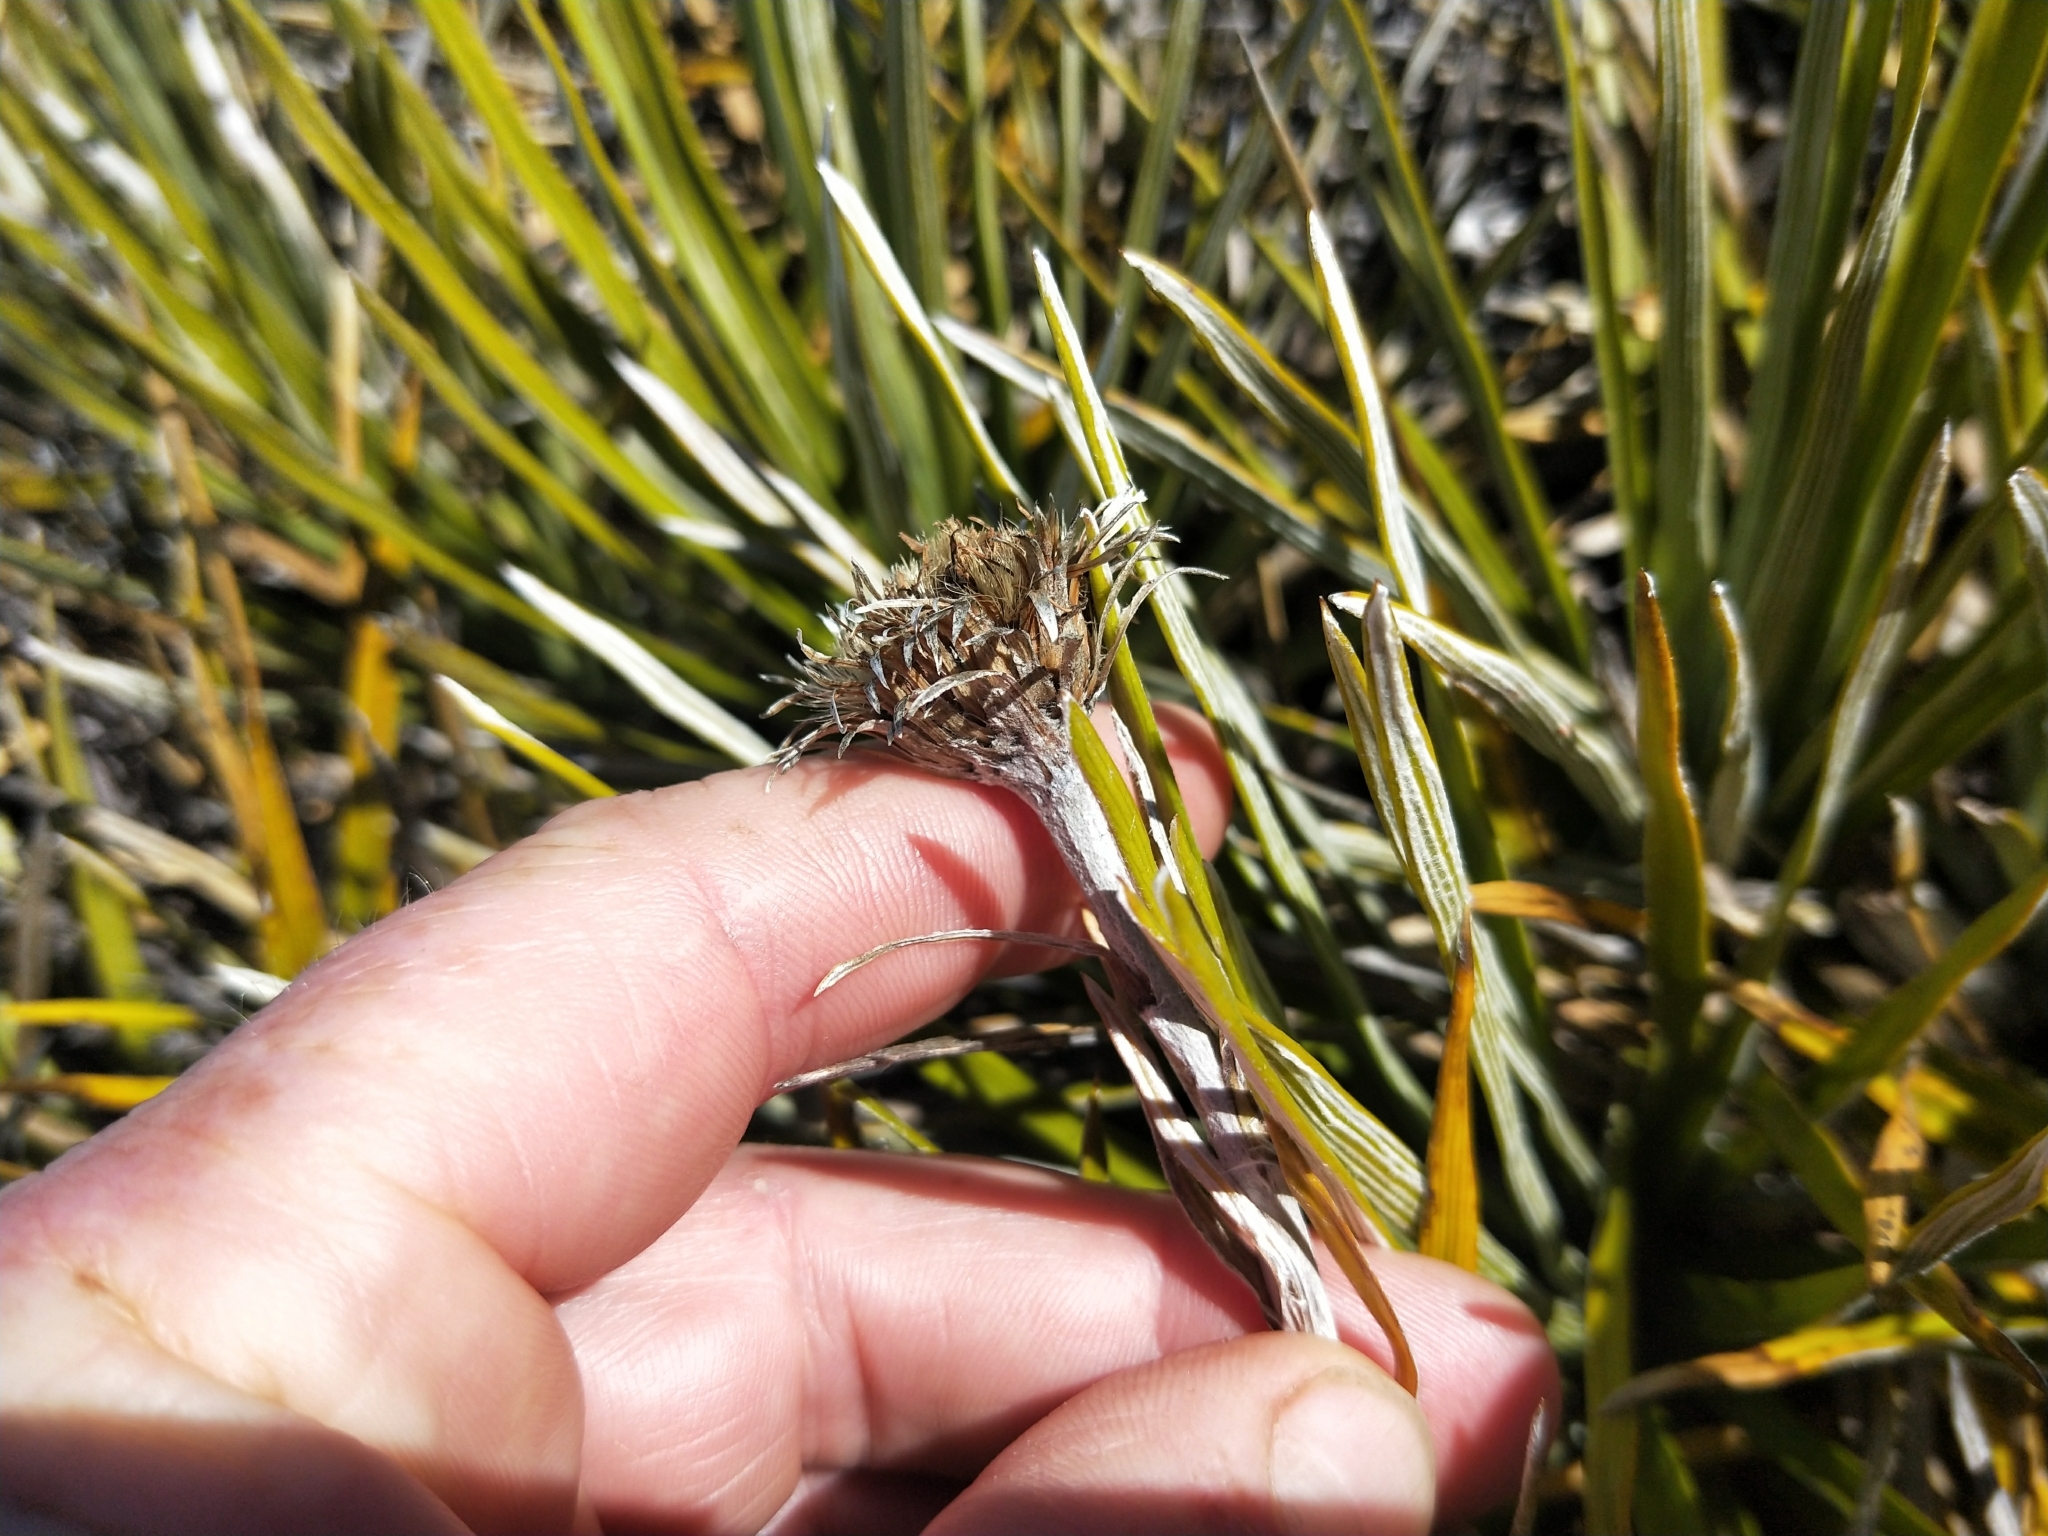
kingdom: Plantae
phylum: Tracheophyta
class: Magnoliopsida
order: Asterales
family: Asteraceae
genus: Celmisia
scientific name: Celmisia lyallii
